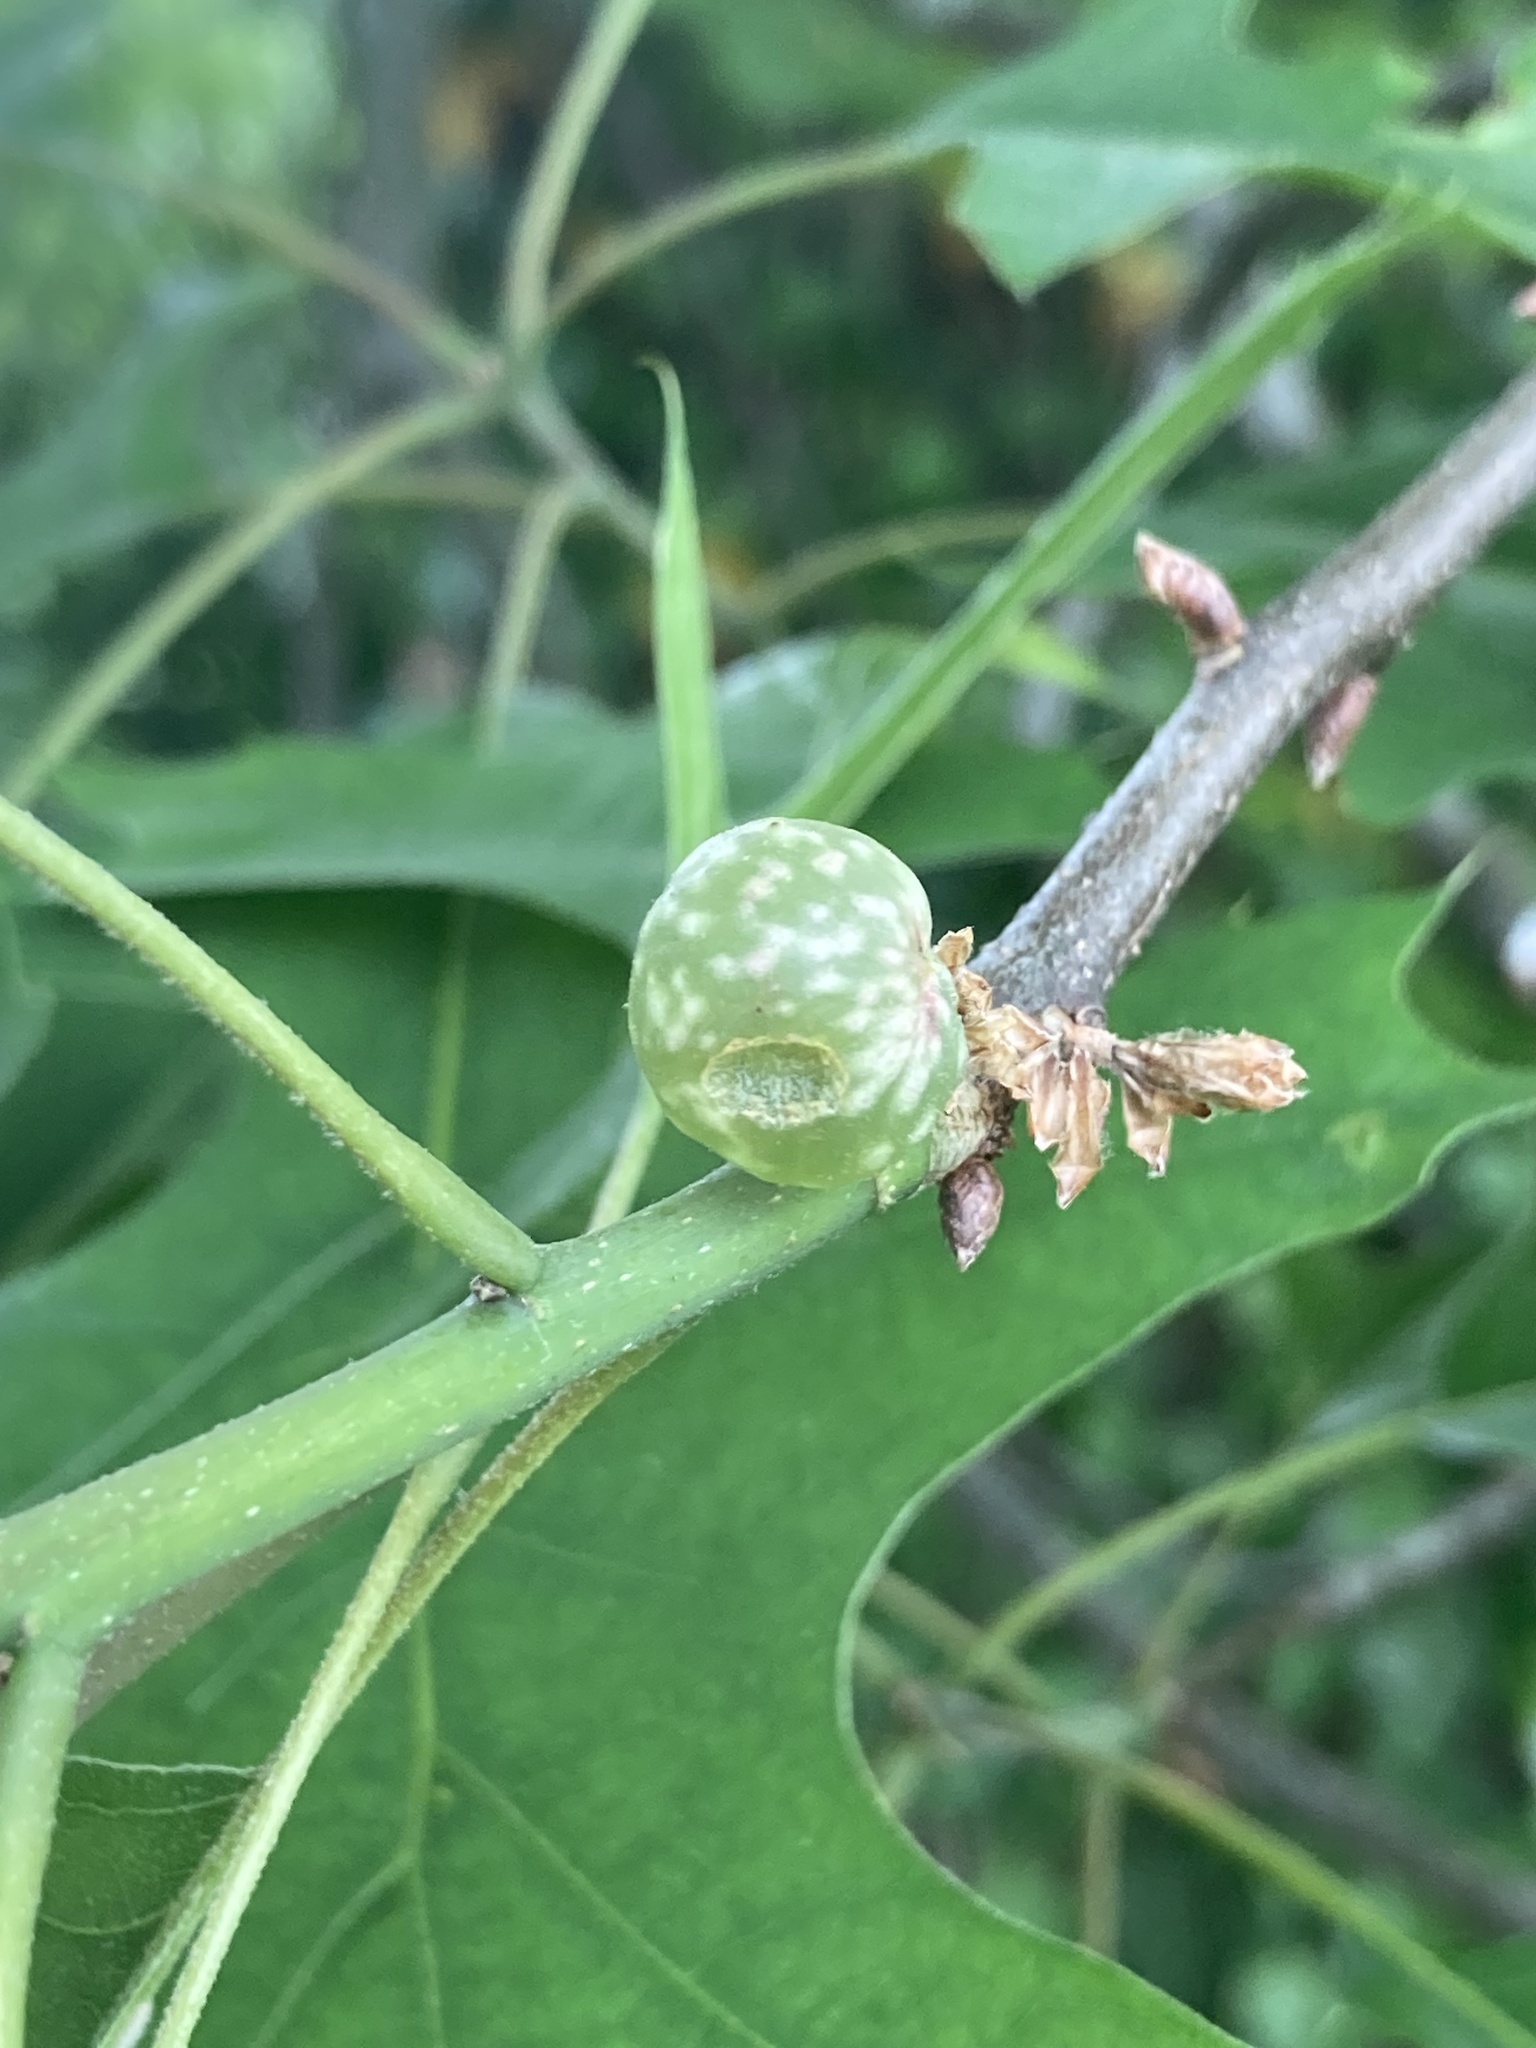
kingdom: Animalia
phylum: Arthropoda
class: Insecta
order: Hymenoptera
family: Cynipidae
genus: Dryocosmus
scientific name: Dryocosmus quercuspalustris
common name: Succulent oak gall wasp
